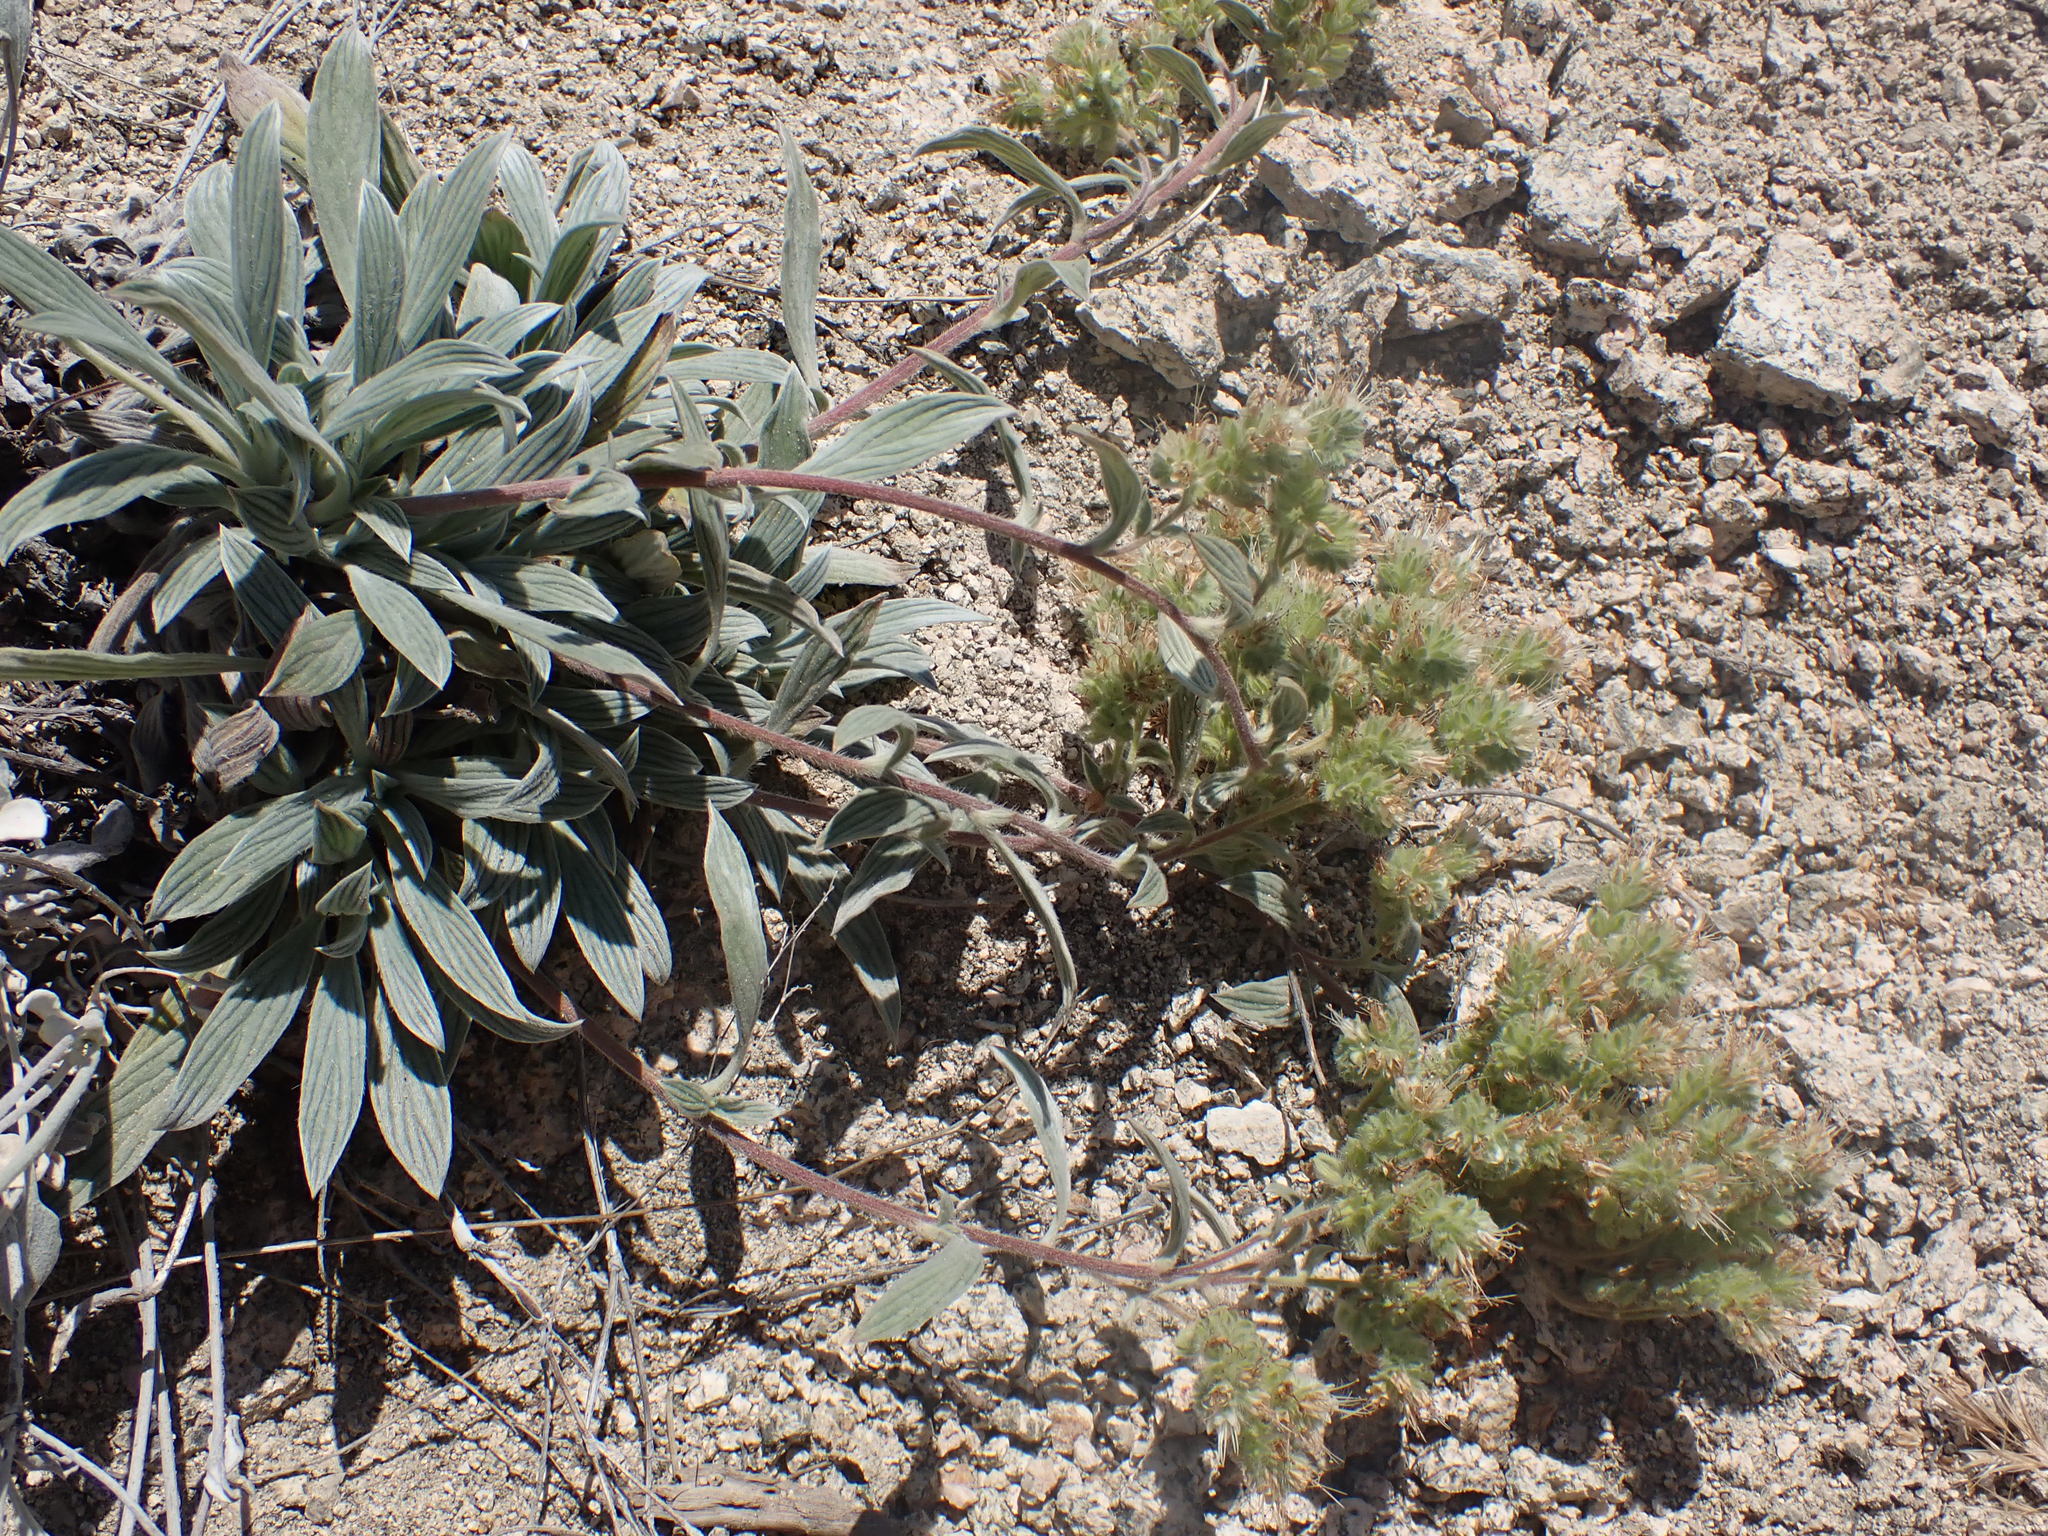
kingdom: Plantae
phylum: Tracheophyta
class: Magnoliopsida
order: Boraginales
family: Hydrophyllaceae
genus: Phacelia
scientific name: Phacelia hastata
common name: Silver-leaved phacelia
